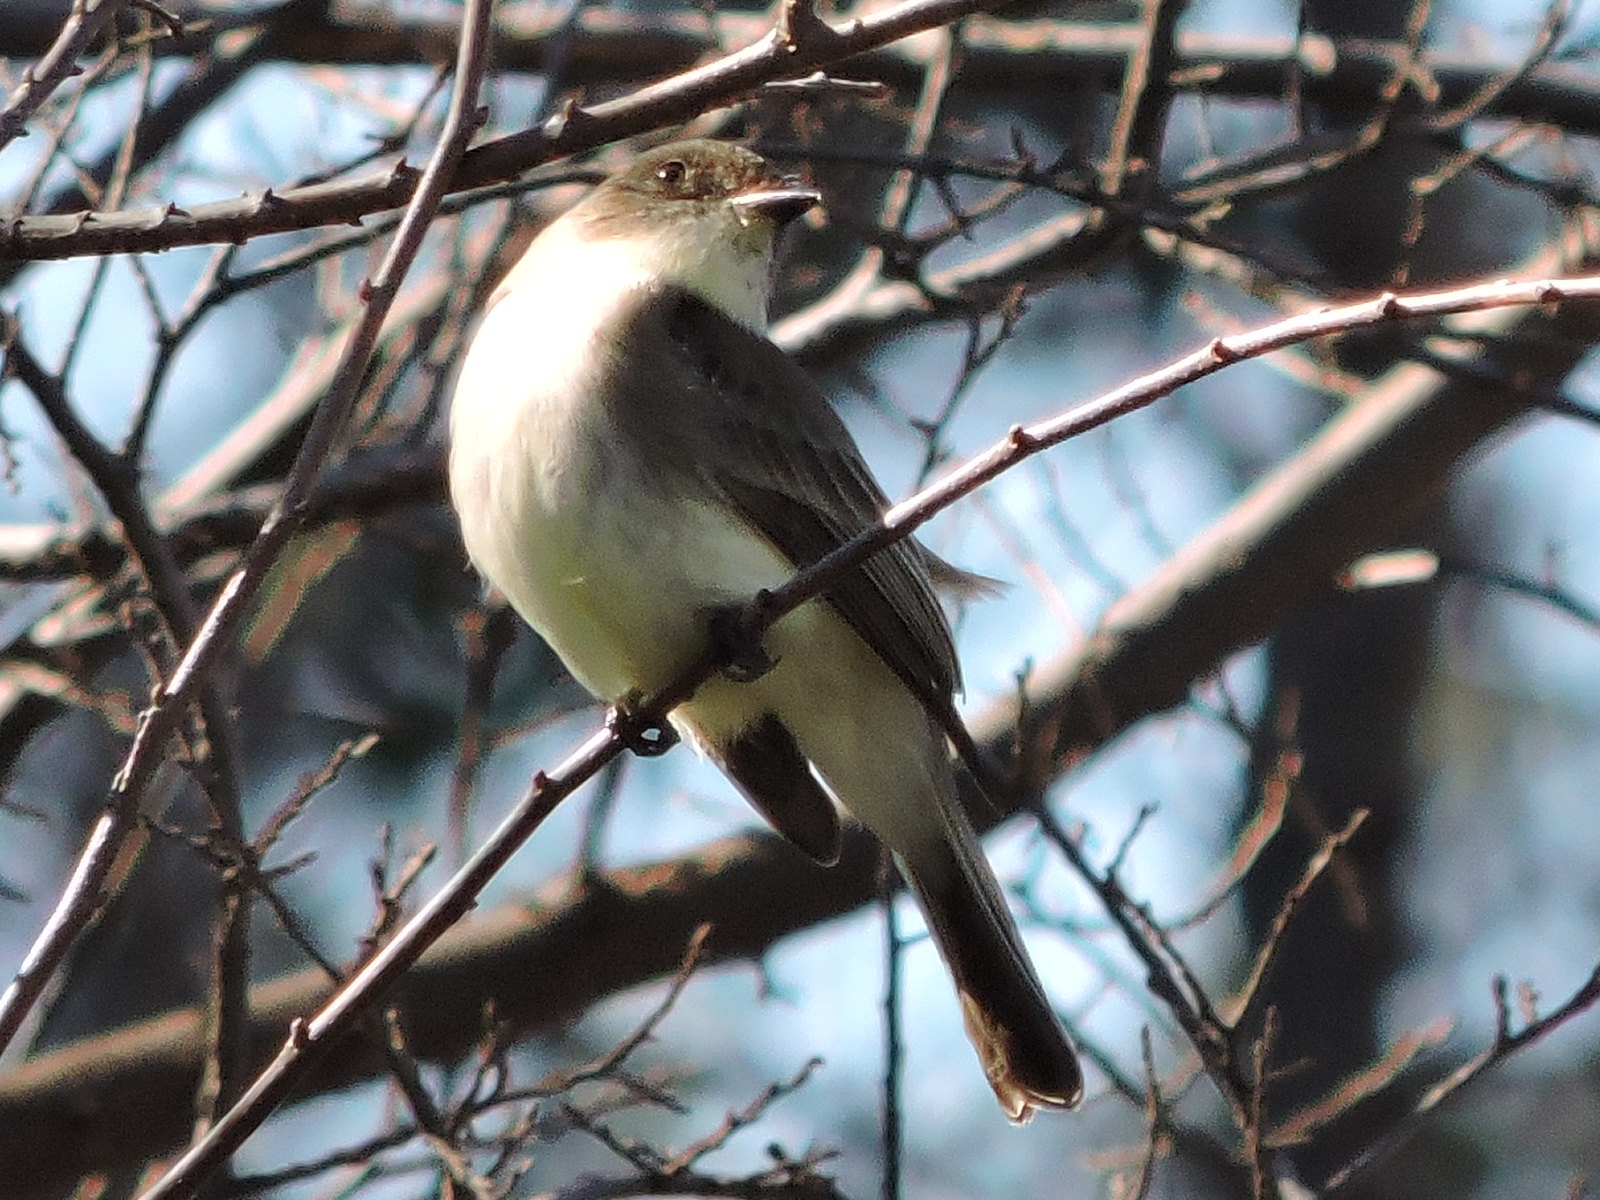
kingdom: Animalia
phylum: Chordata
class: Aves
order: Passeriformes
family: Tyrannidae
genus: Sayornis
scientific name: Sayornis phoebe
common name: Eastern phoebe
